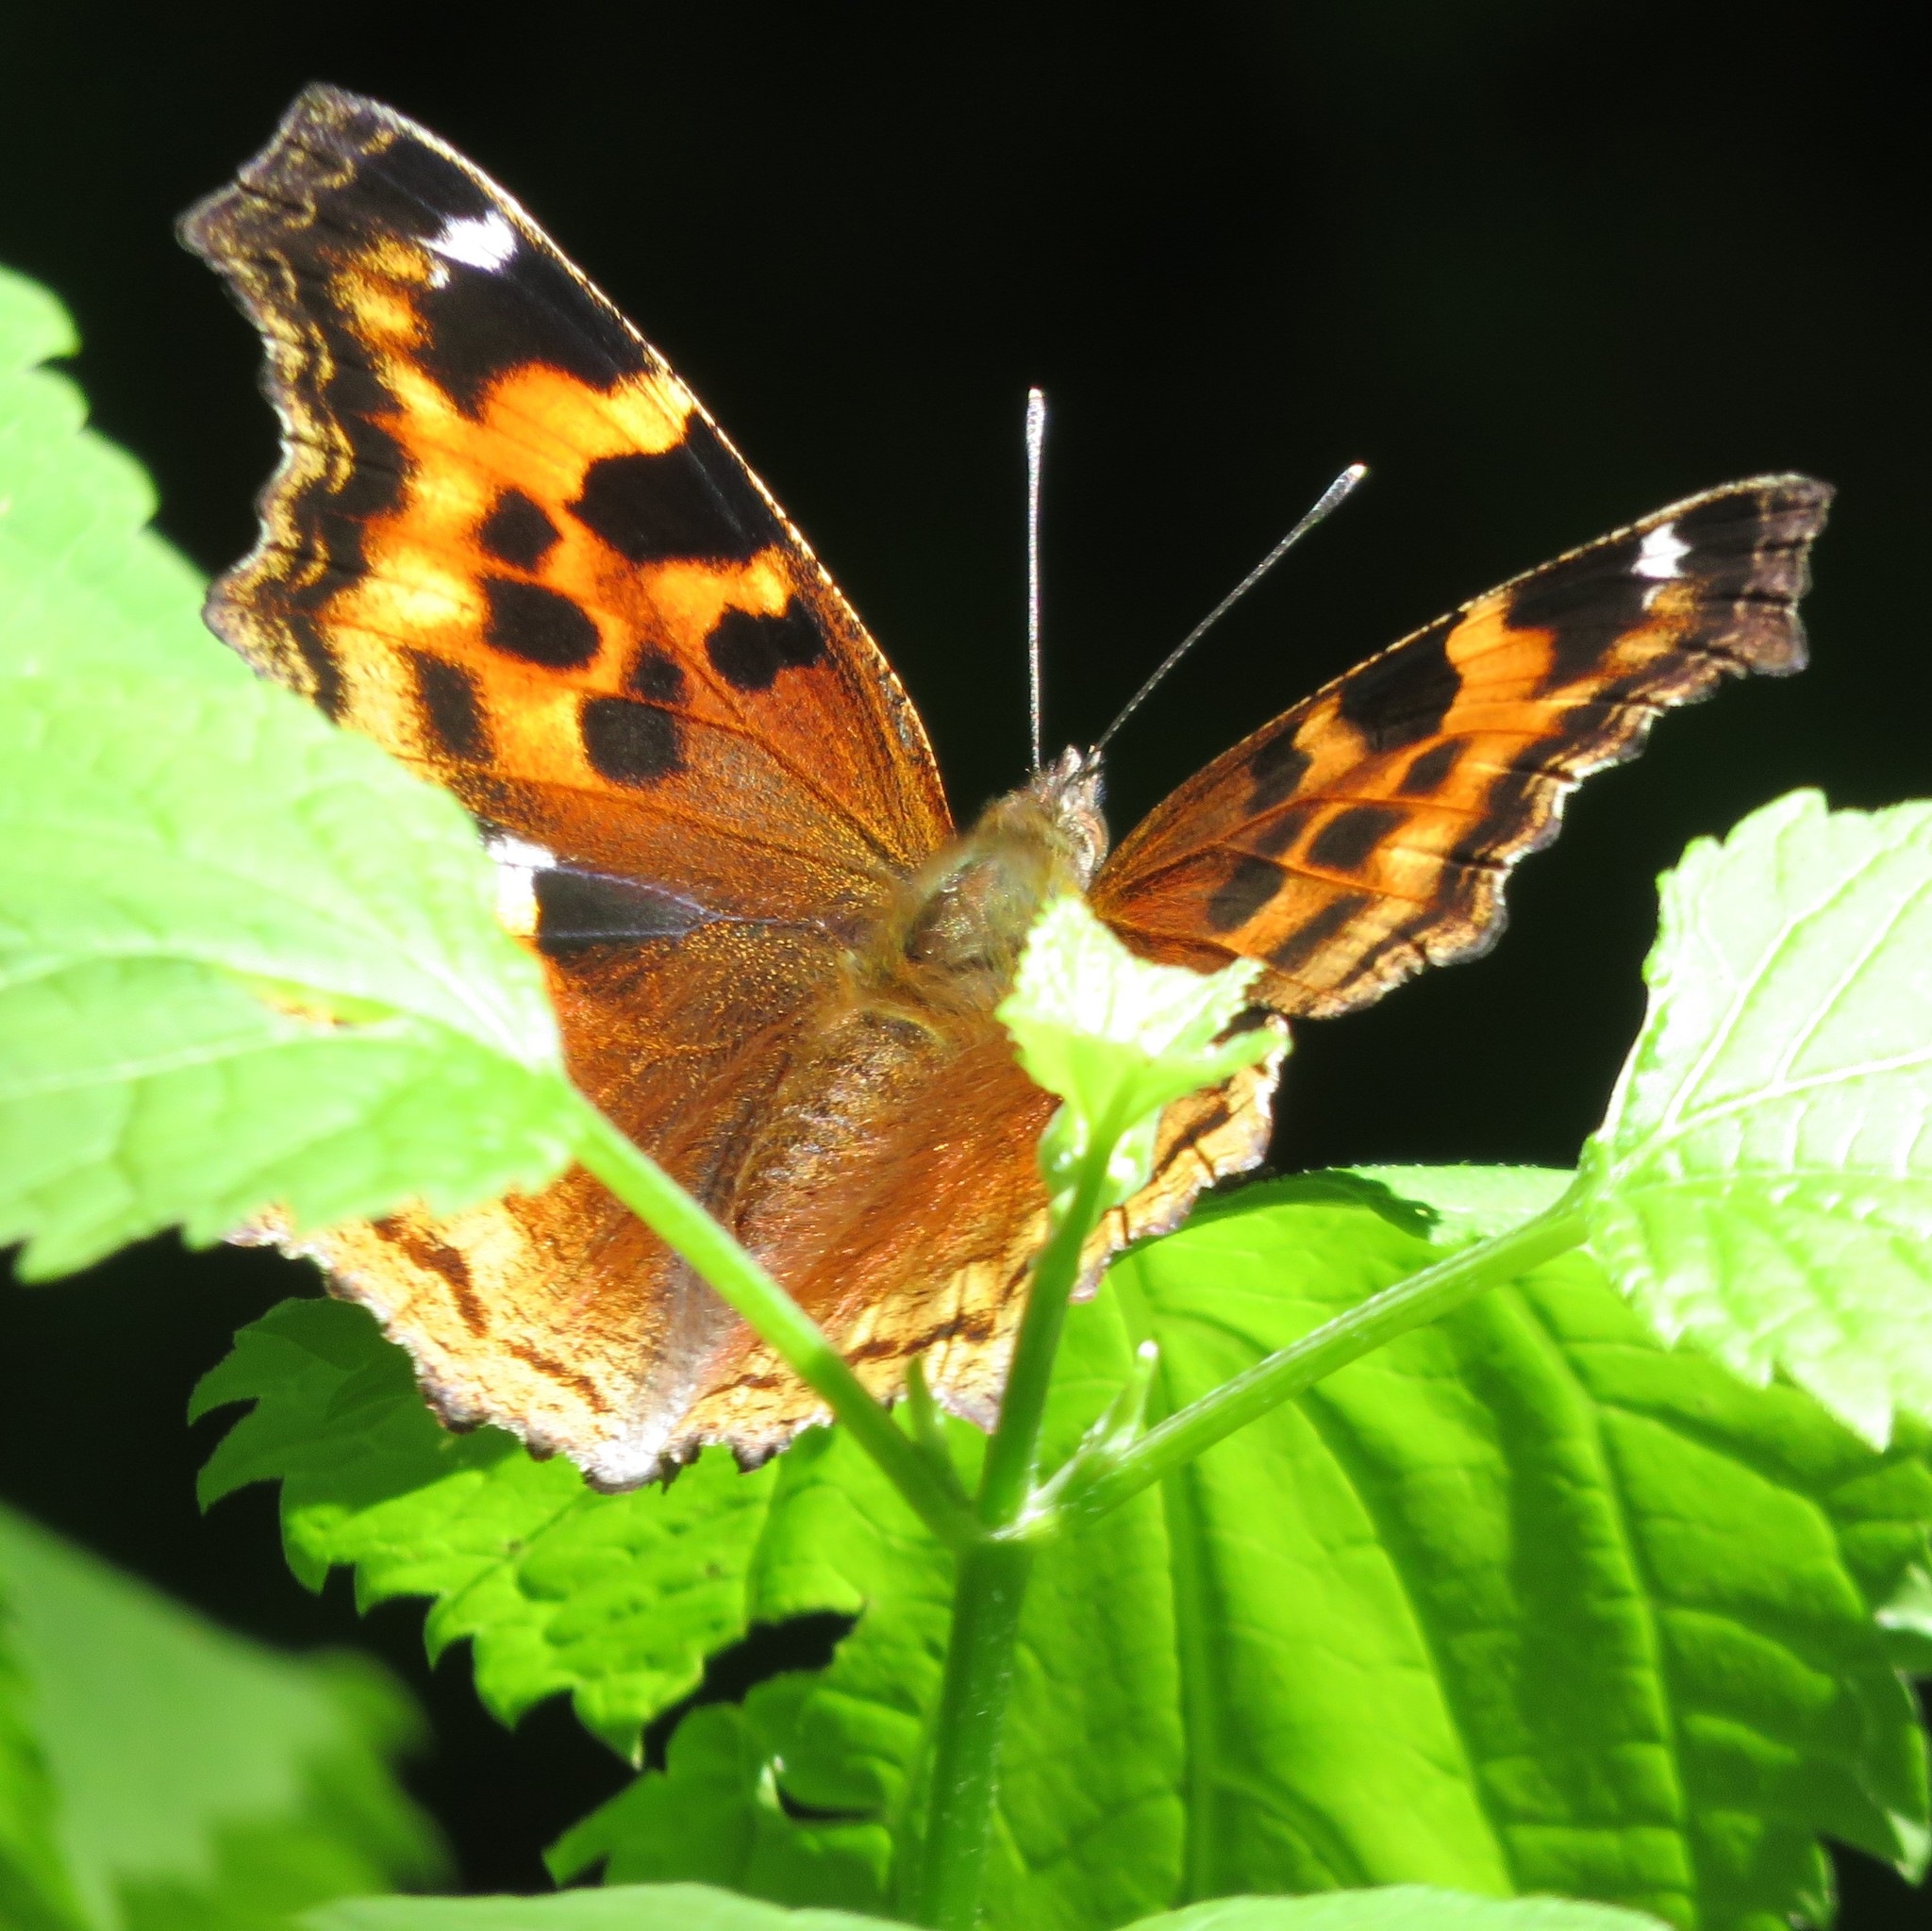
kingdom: Animalia
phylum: Arthropoda
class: Insecta
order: Lepidoptera
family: Nymphalidae
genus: Polygonia
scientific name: Polygonia vaualbum
